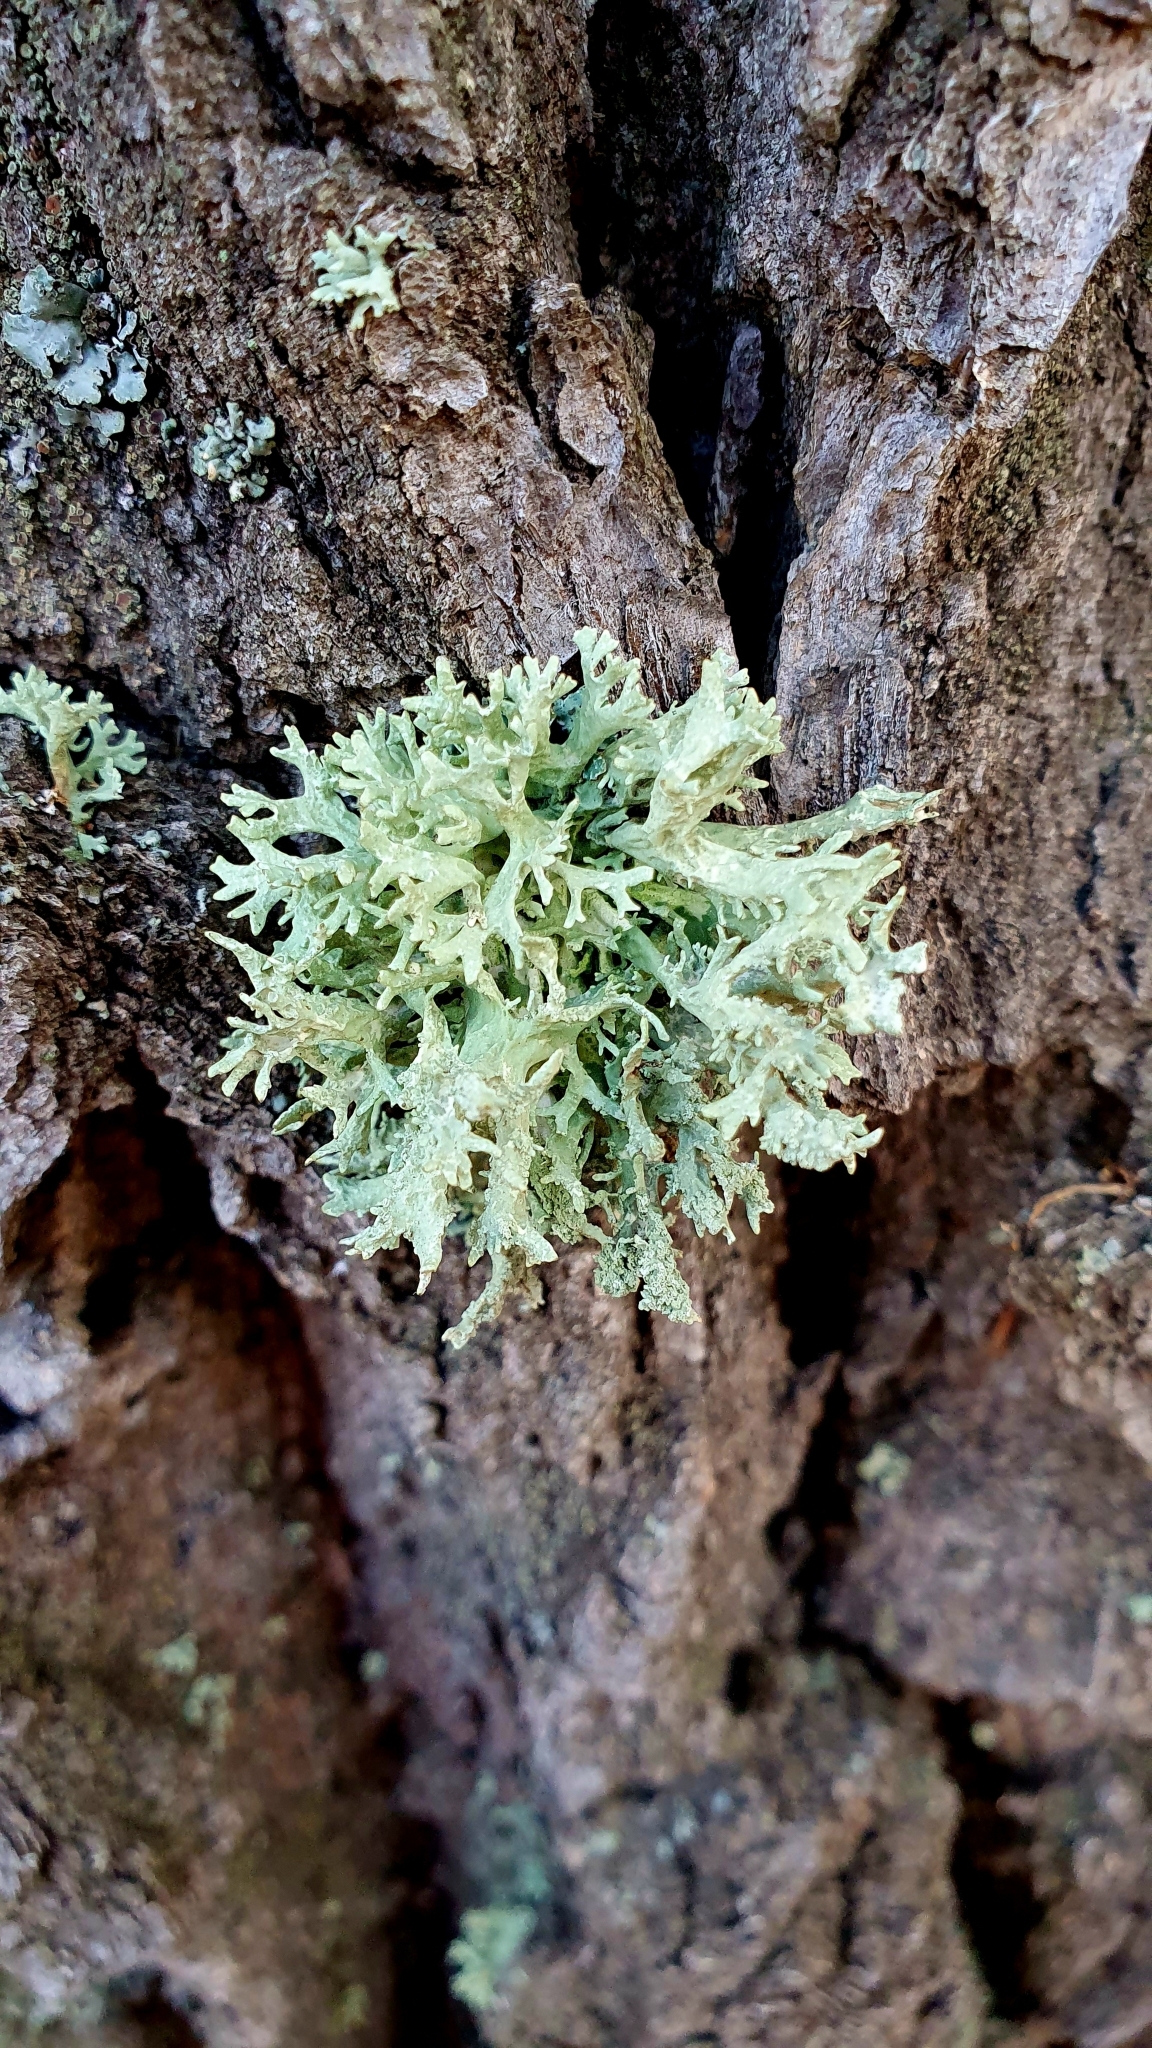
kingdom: Fungi
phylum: Ascomycota
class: Lecanoromycetes
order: Lecanorales
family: Parmeliaceae
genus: Evernia
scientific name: Evernia prunastri
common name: Oak moss
